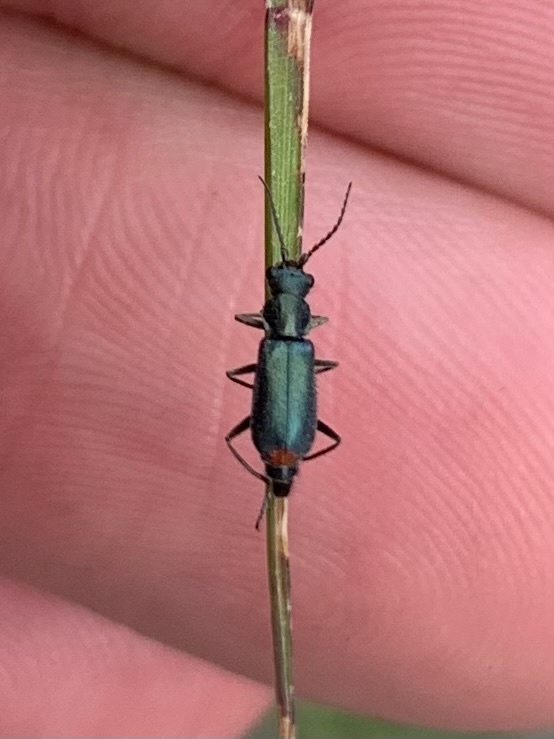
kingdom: Animalia
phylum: Arthropoda
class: Insecta
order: Coleoptera
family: Malachiidae
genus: Cordylepherus
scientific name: Cordylepherus viridis
